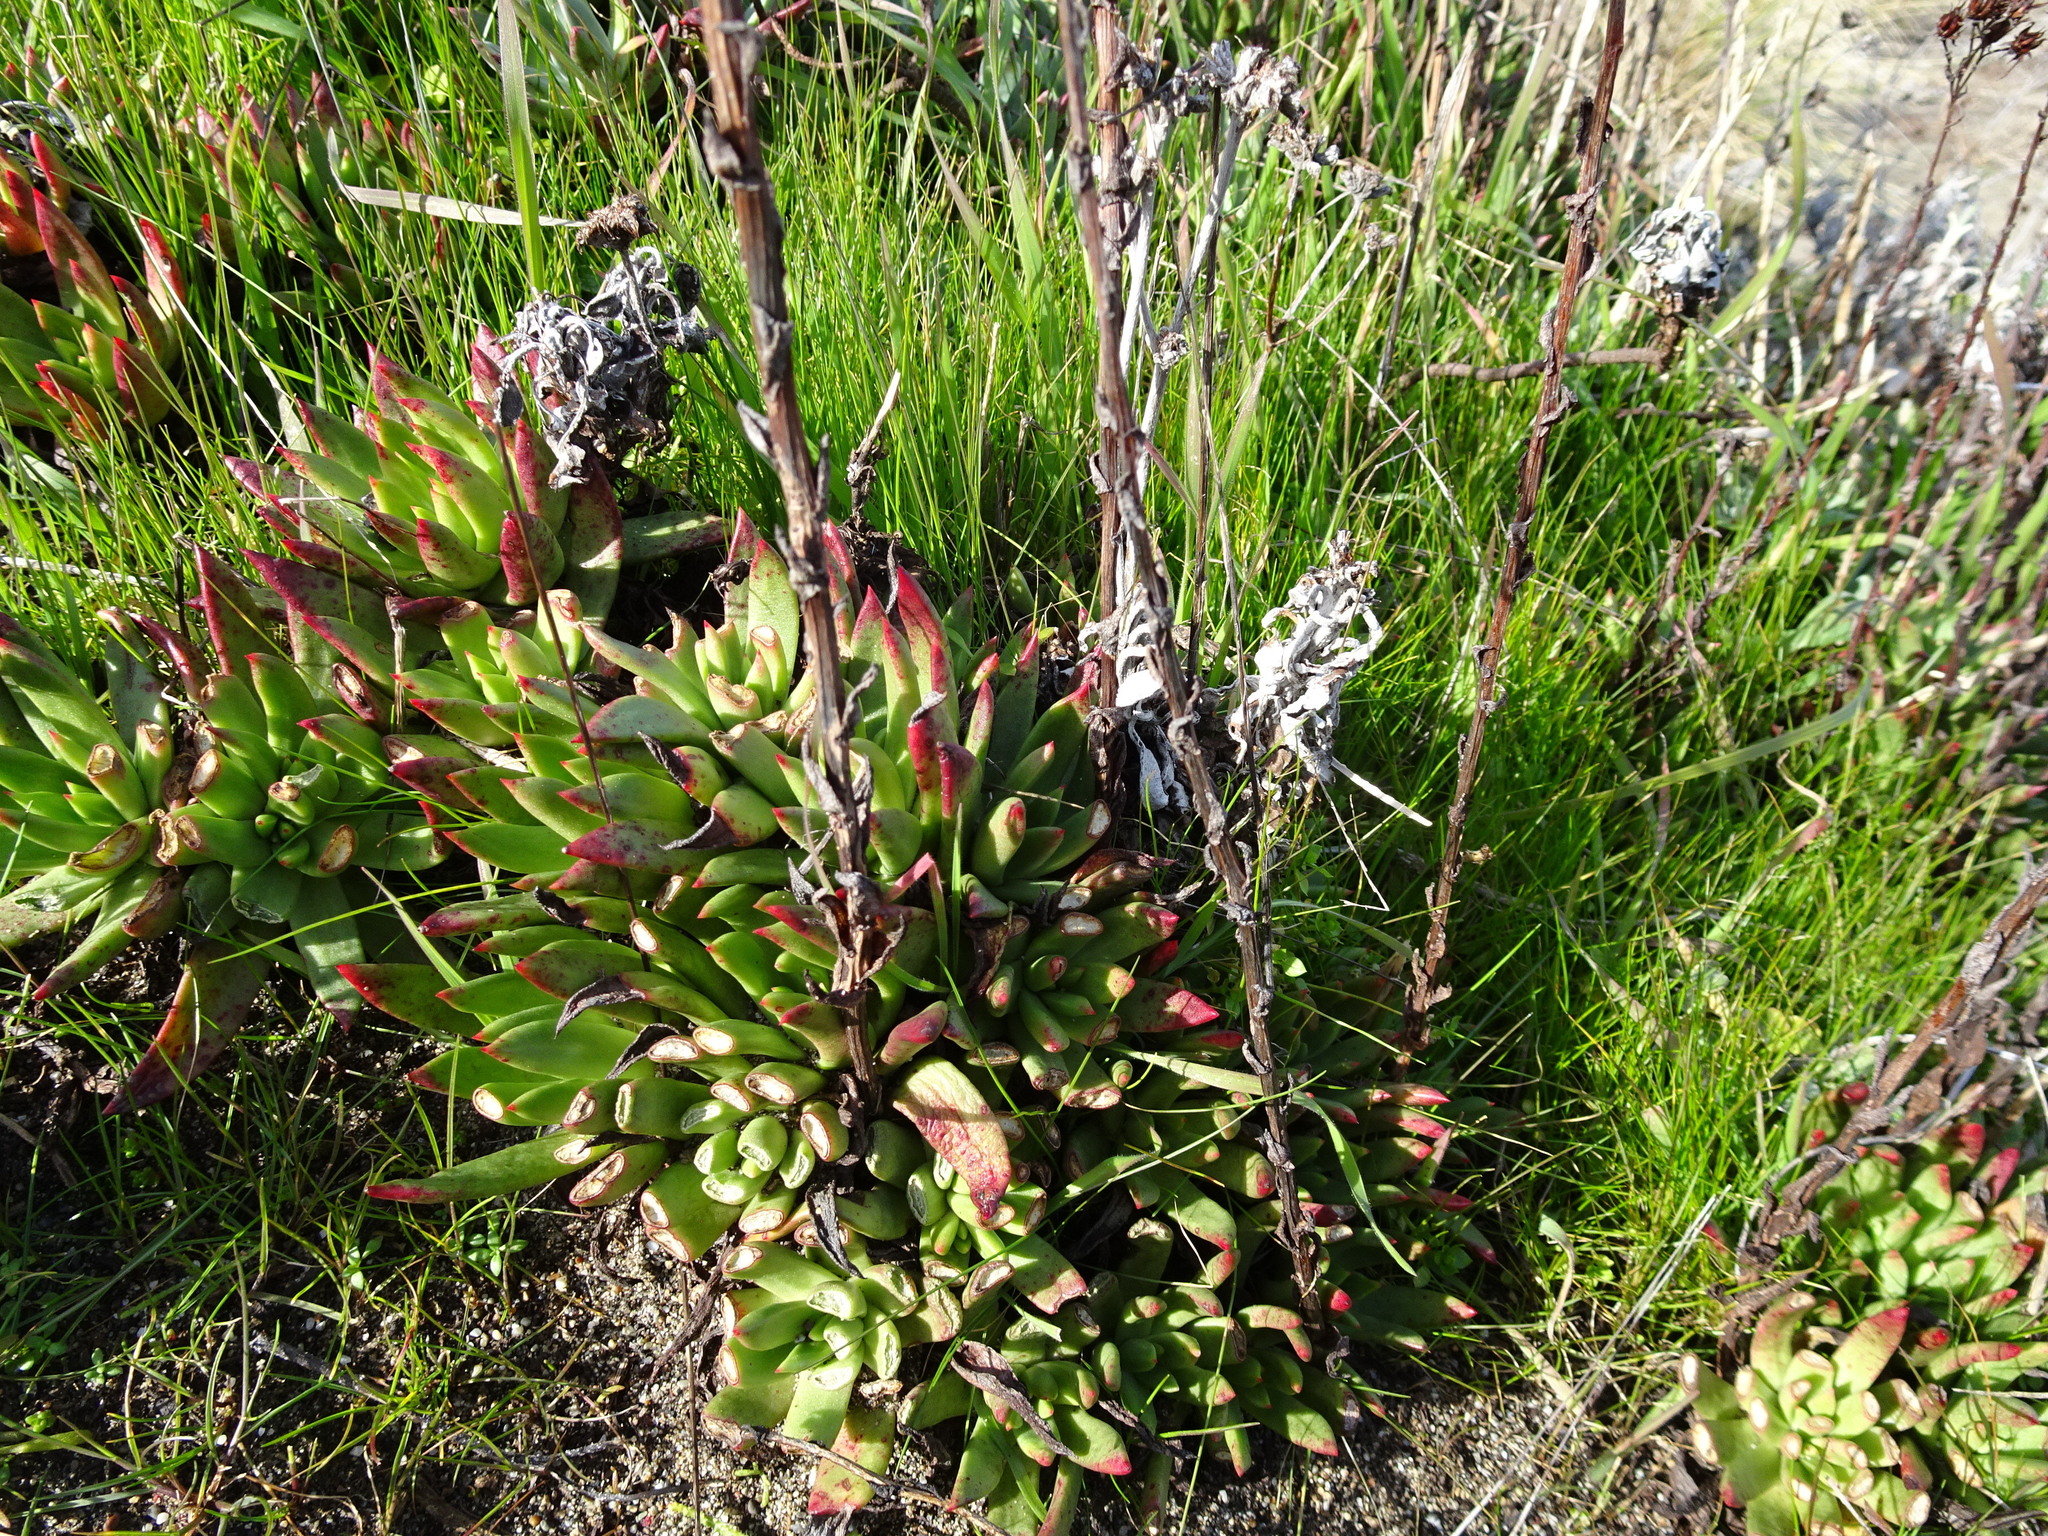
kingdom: Plantae
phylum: Tracheophyta
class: Magnoliopsida
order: Saxifragales
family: Crassulaceae
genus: Dudleya
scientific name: Dudleya farinosa
